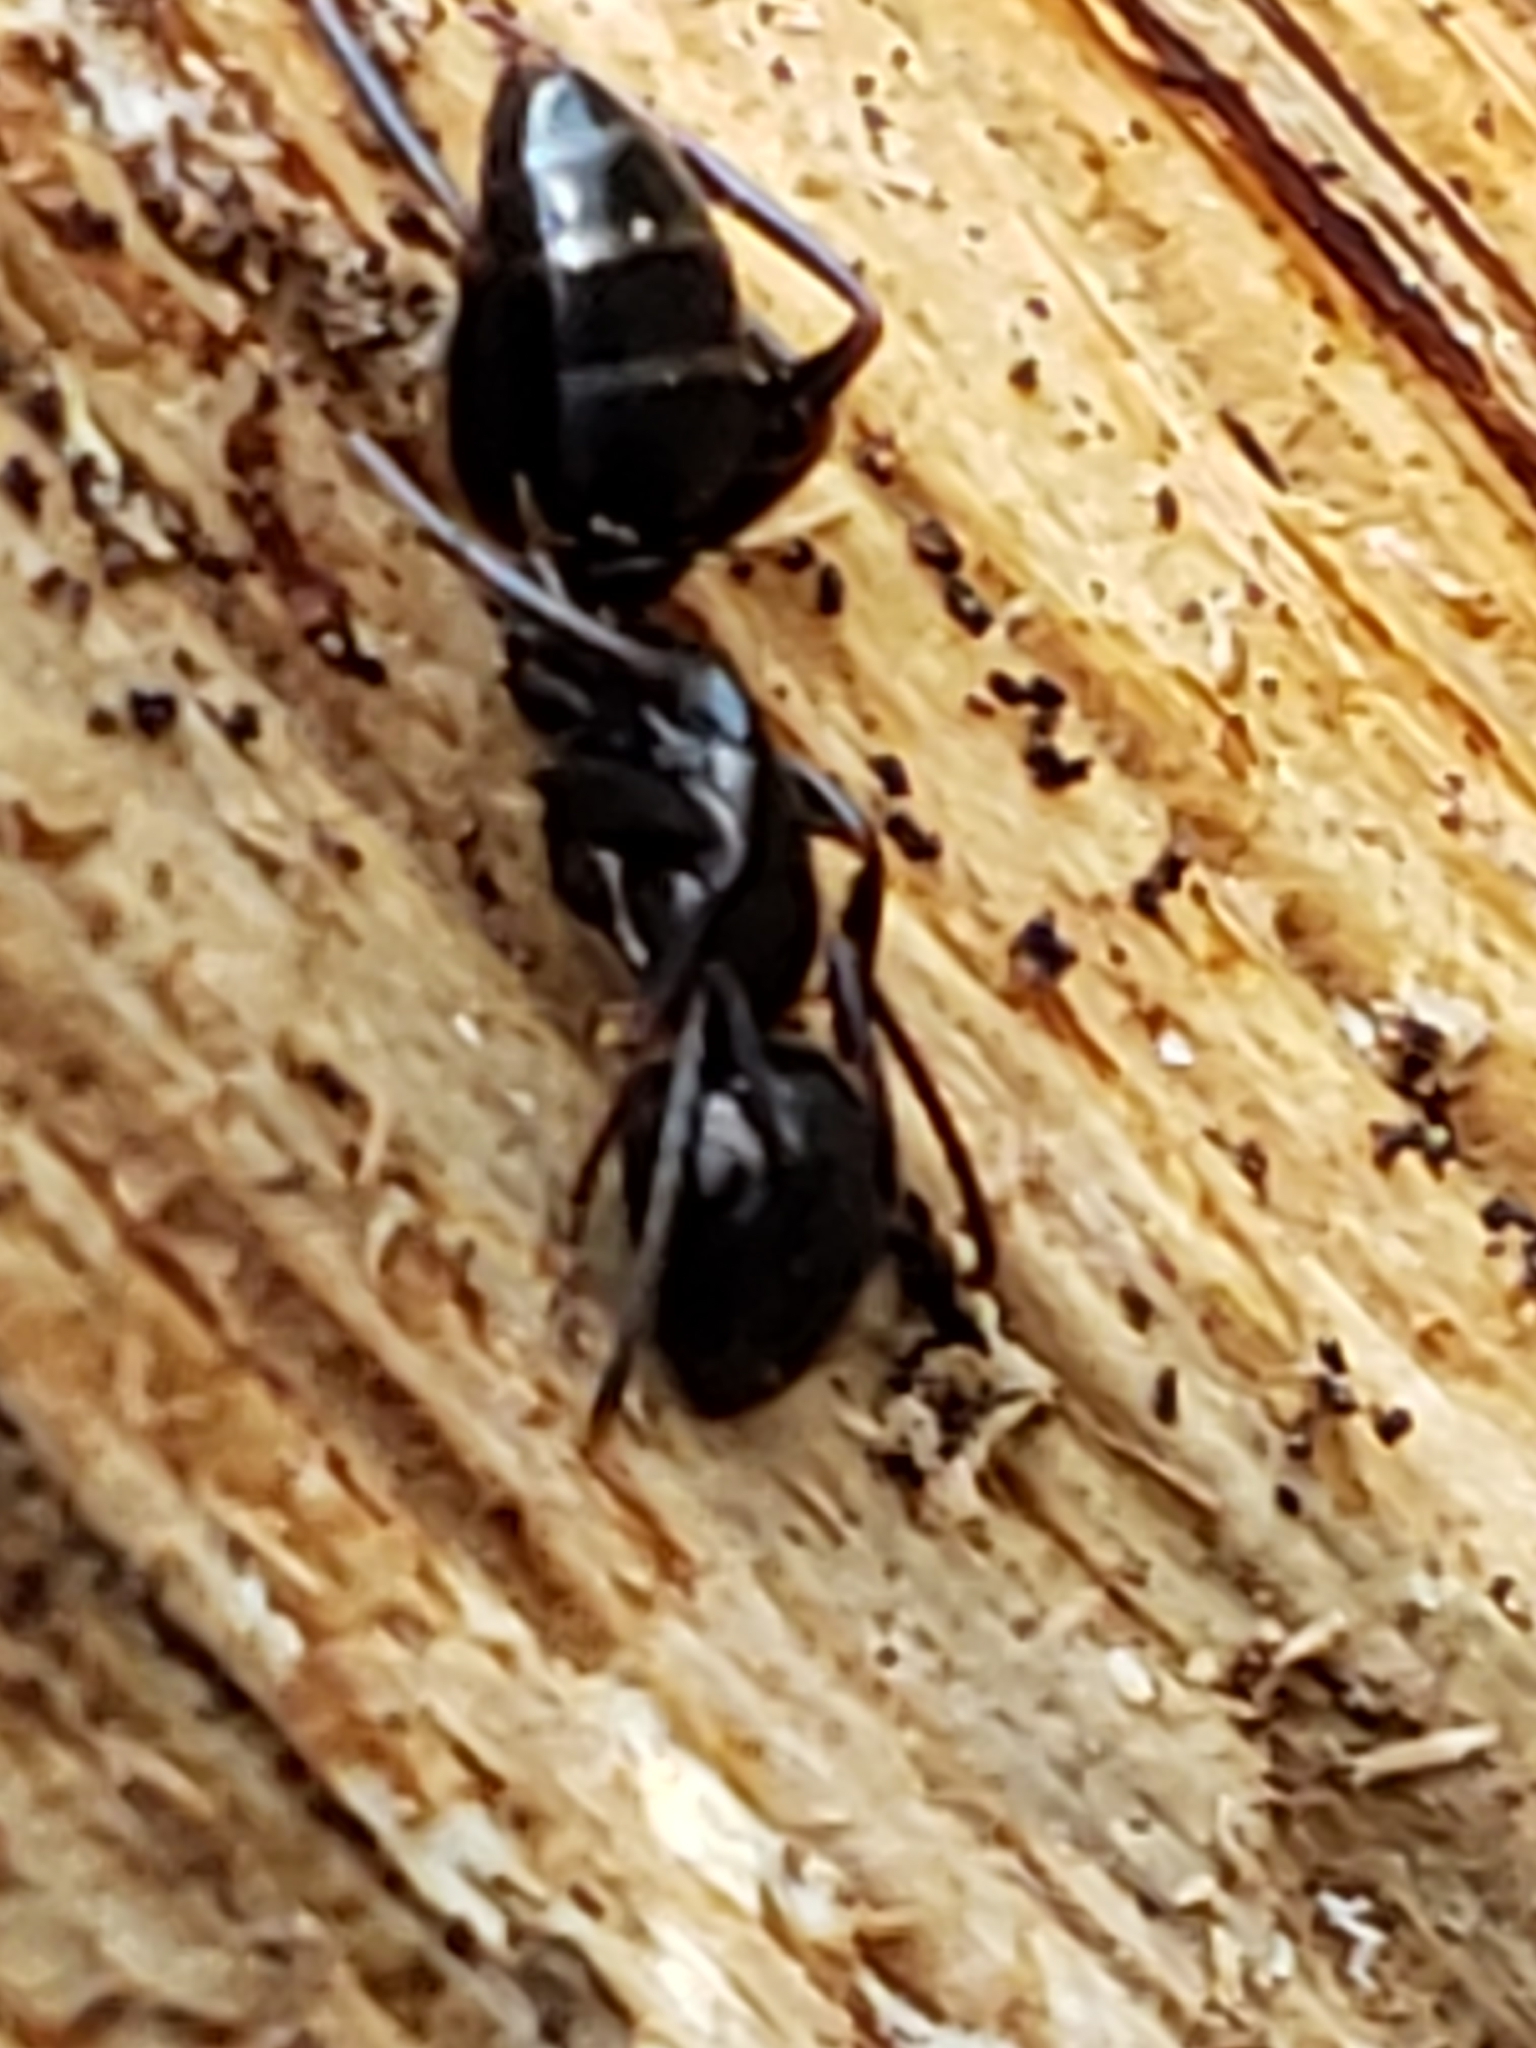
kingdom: Animalia
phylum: Arthropoda
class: Insecta
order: Hymenoptera
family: Formicidae
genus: Camponotus
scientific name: Camponotus nearcticus
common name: Smaller carpenter ant
